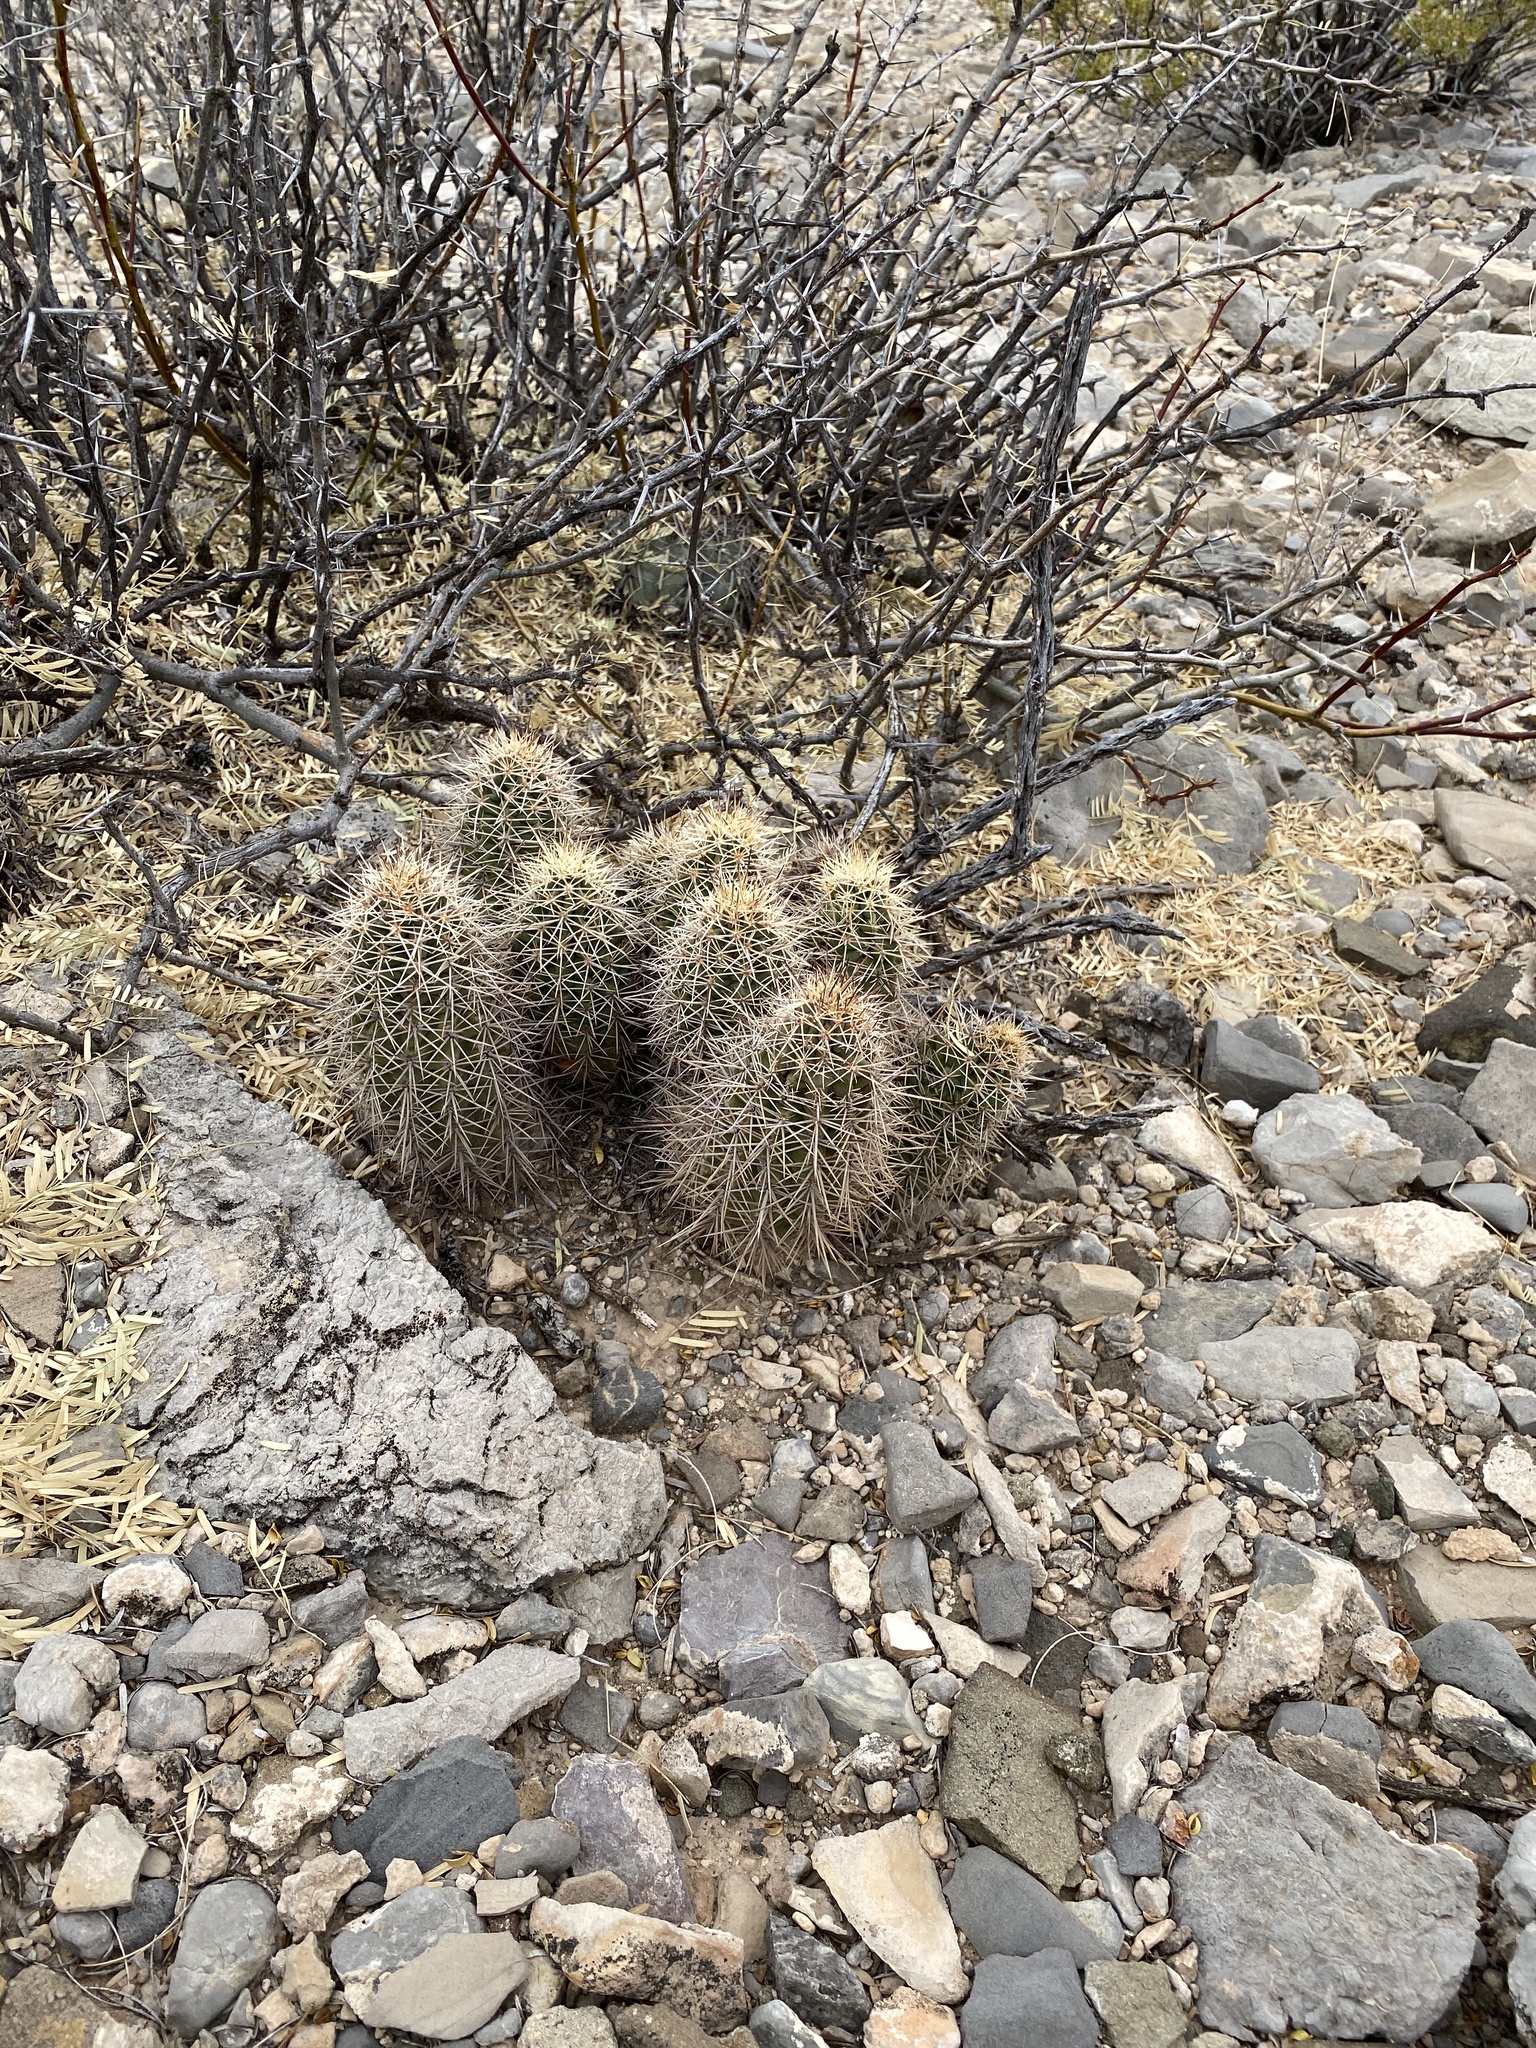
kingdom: Plantae
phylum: Tracheophyta
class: Magnoliopsida
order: Caryophyllales
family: Cactaceae
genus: Echinocereus
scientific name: Echinocereus coccineus
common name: Scarlet hedgehog cactus
